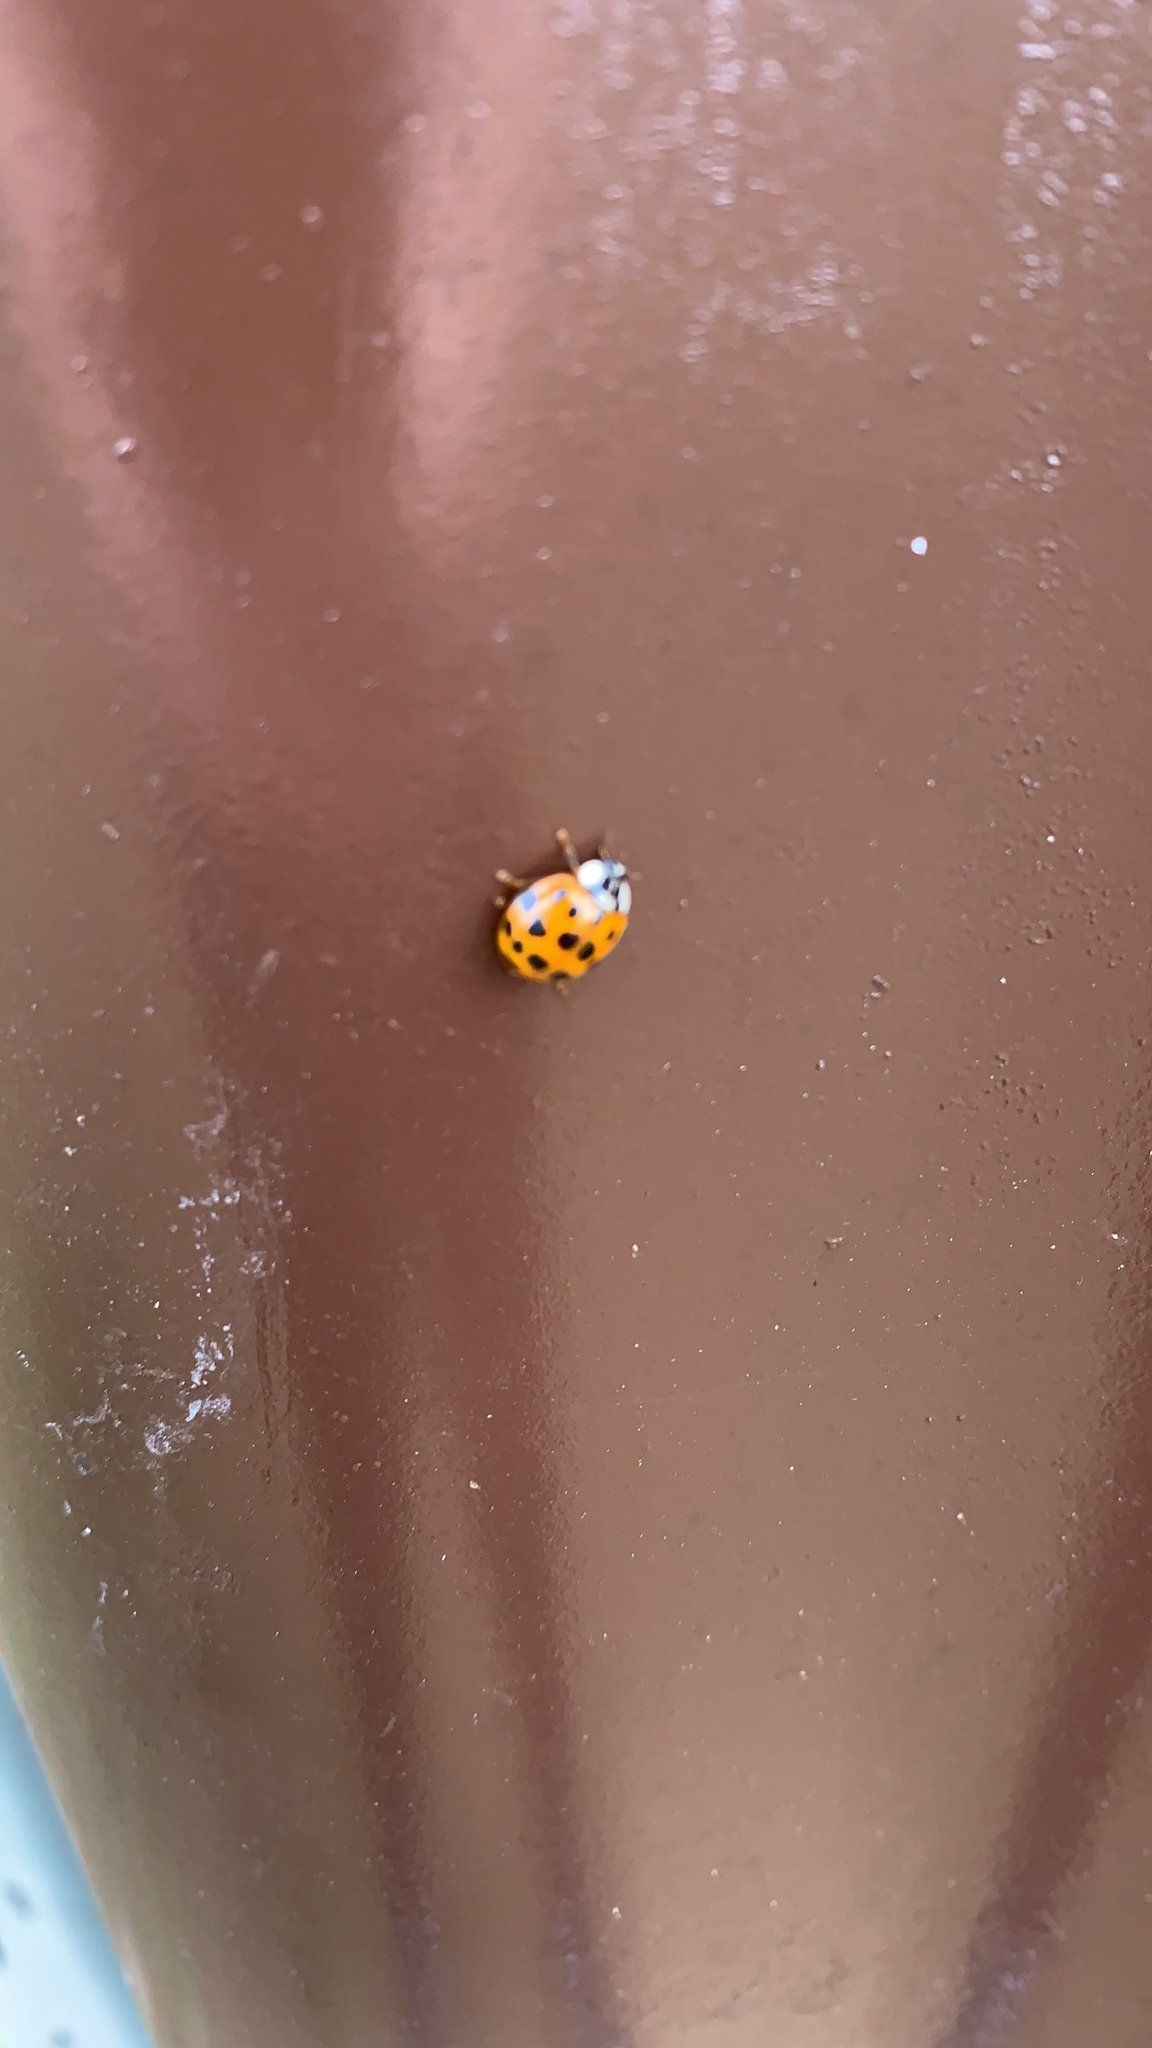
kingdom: Animalia
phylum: Arthropoda
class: Insecta
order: Coleoptera
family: Coccinellidae
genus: Harmonia
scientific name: Harmonia axyridis
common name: Harlequin ladybird
